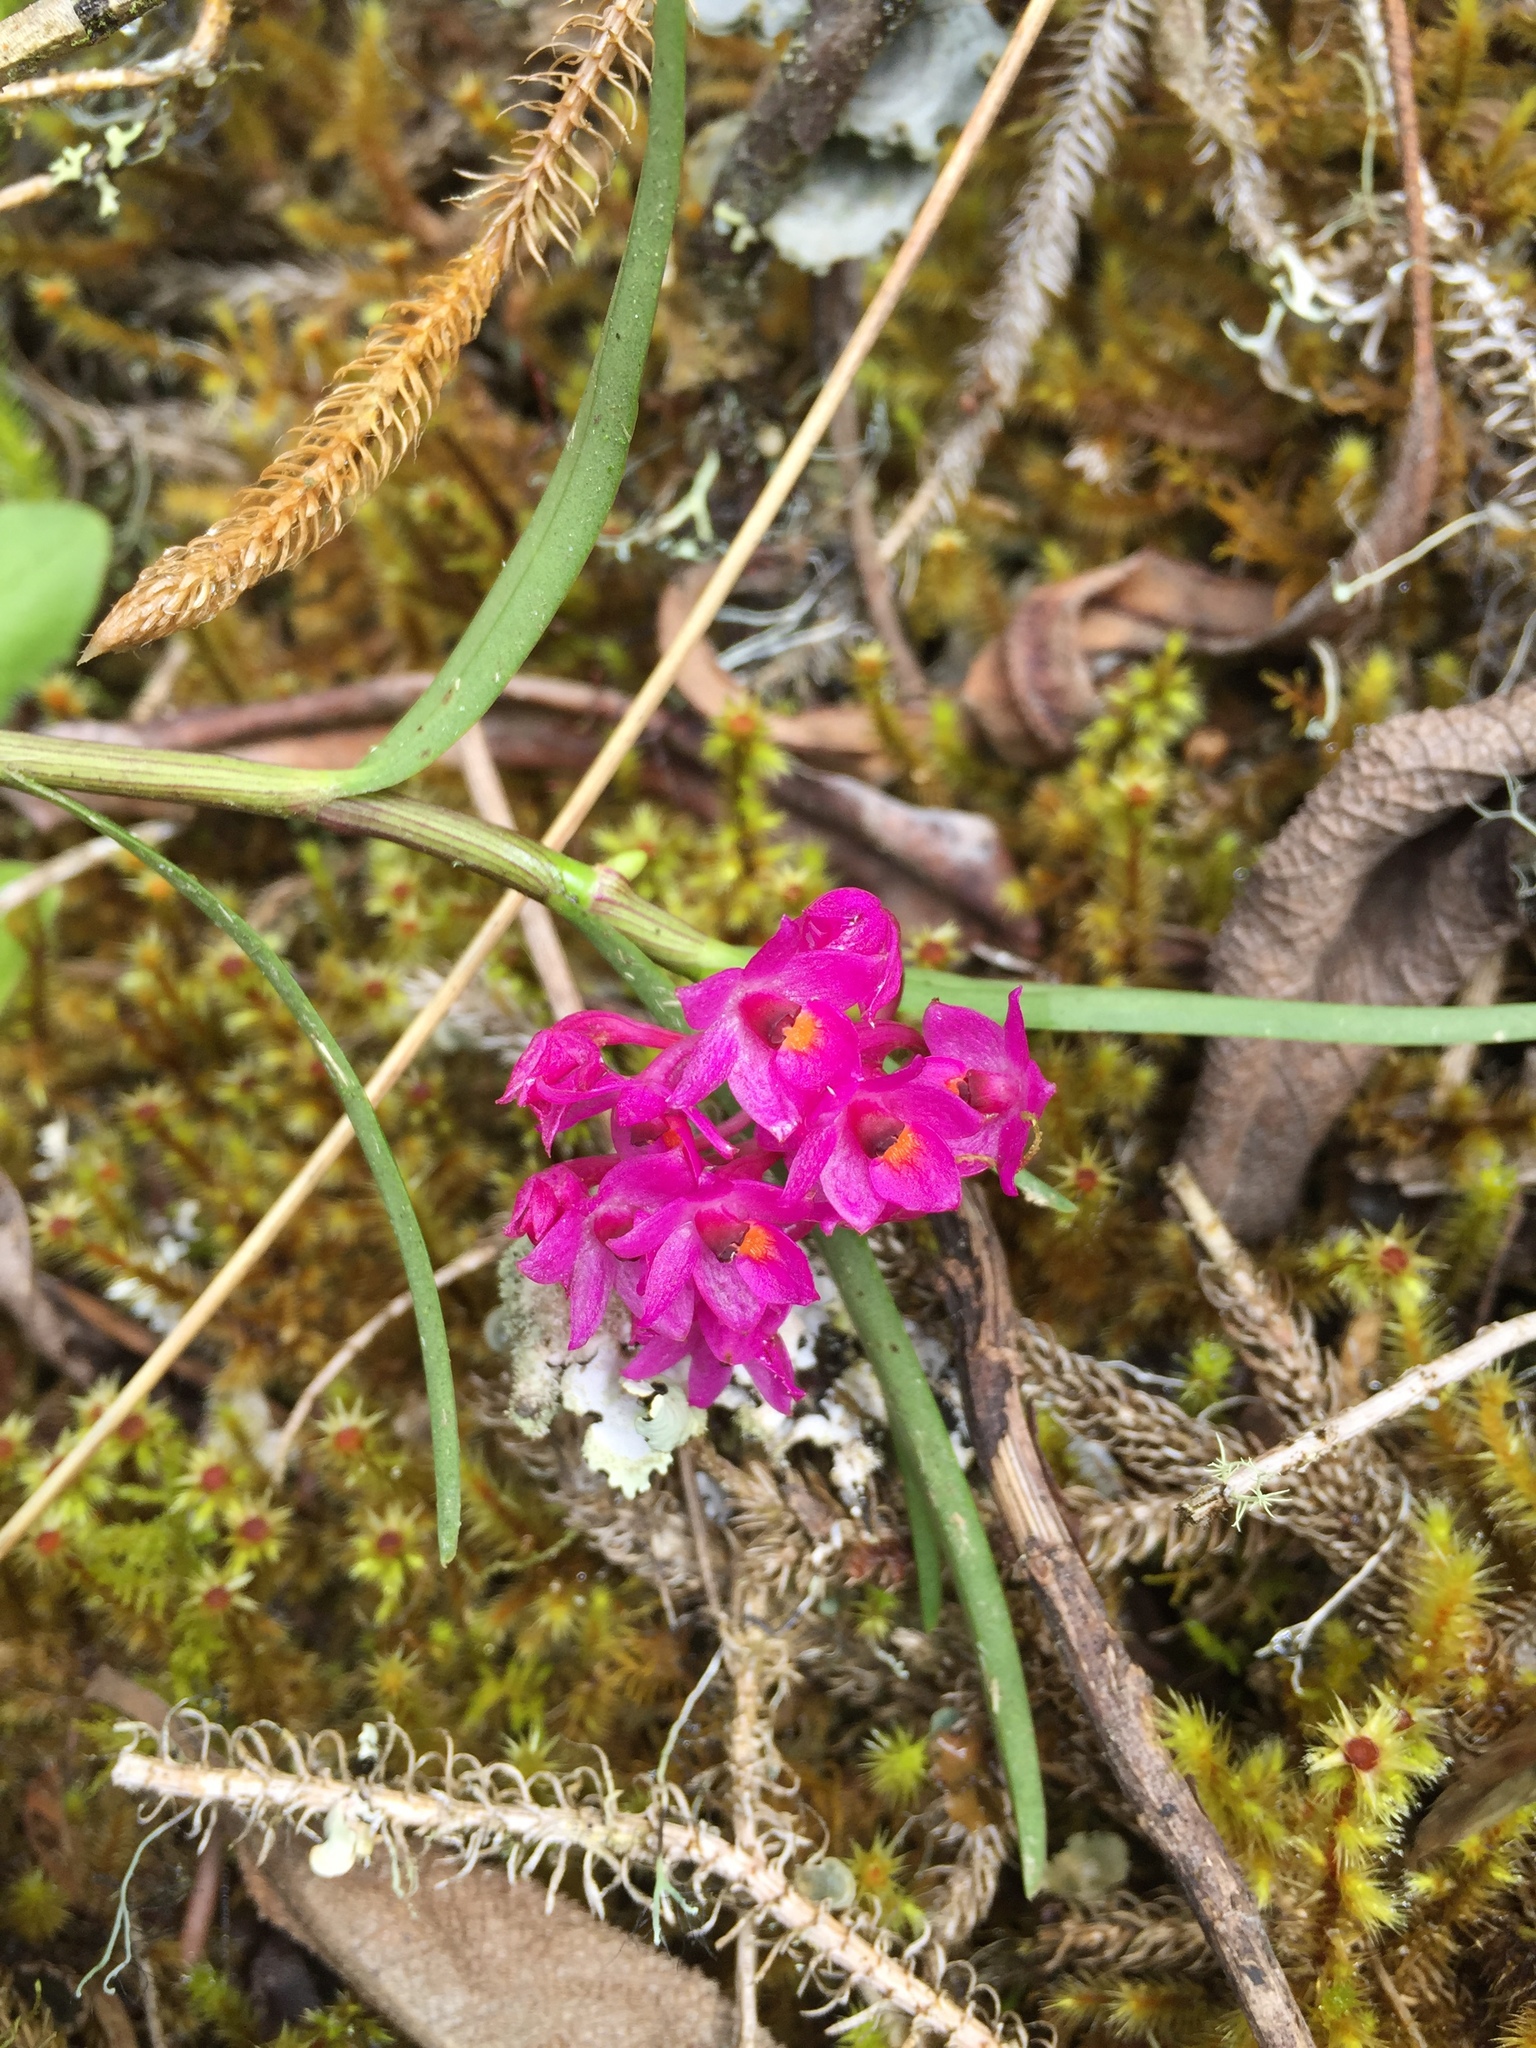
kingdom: Plantae
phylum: Tracheophyta
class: Liliopsida
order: Asparagales
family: Orchidaceae
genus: Epidendrum
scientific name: Epidendrum gastropodium
